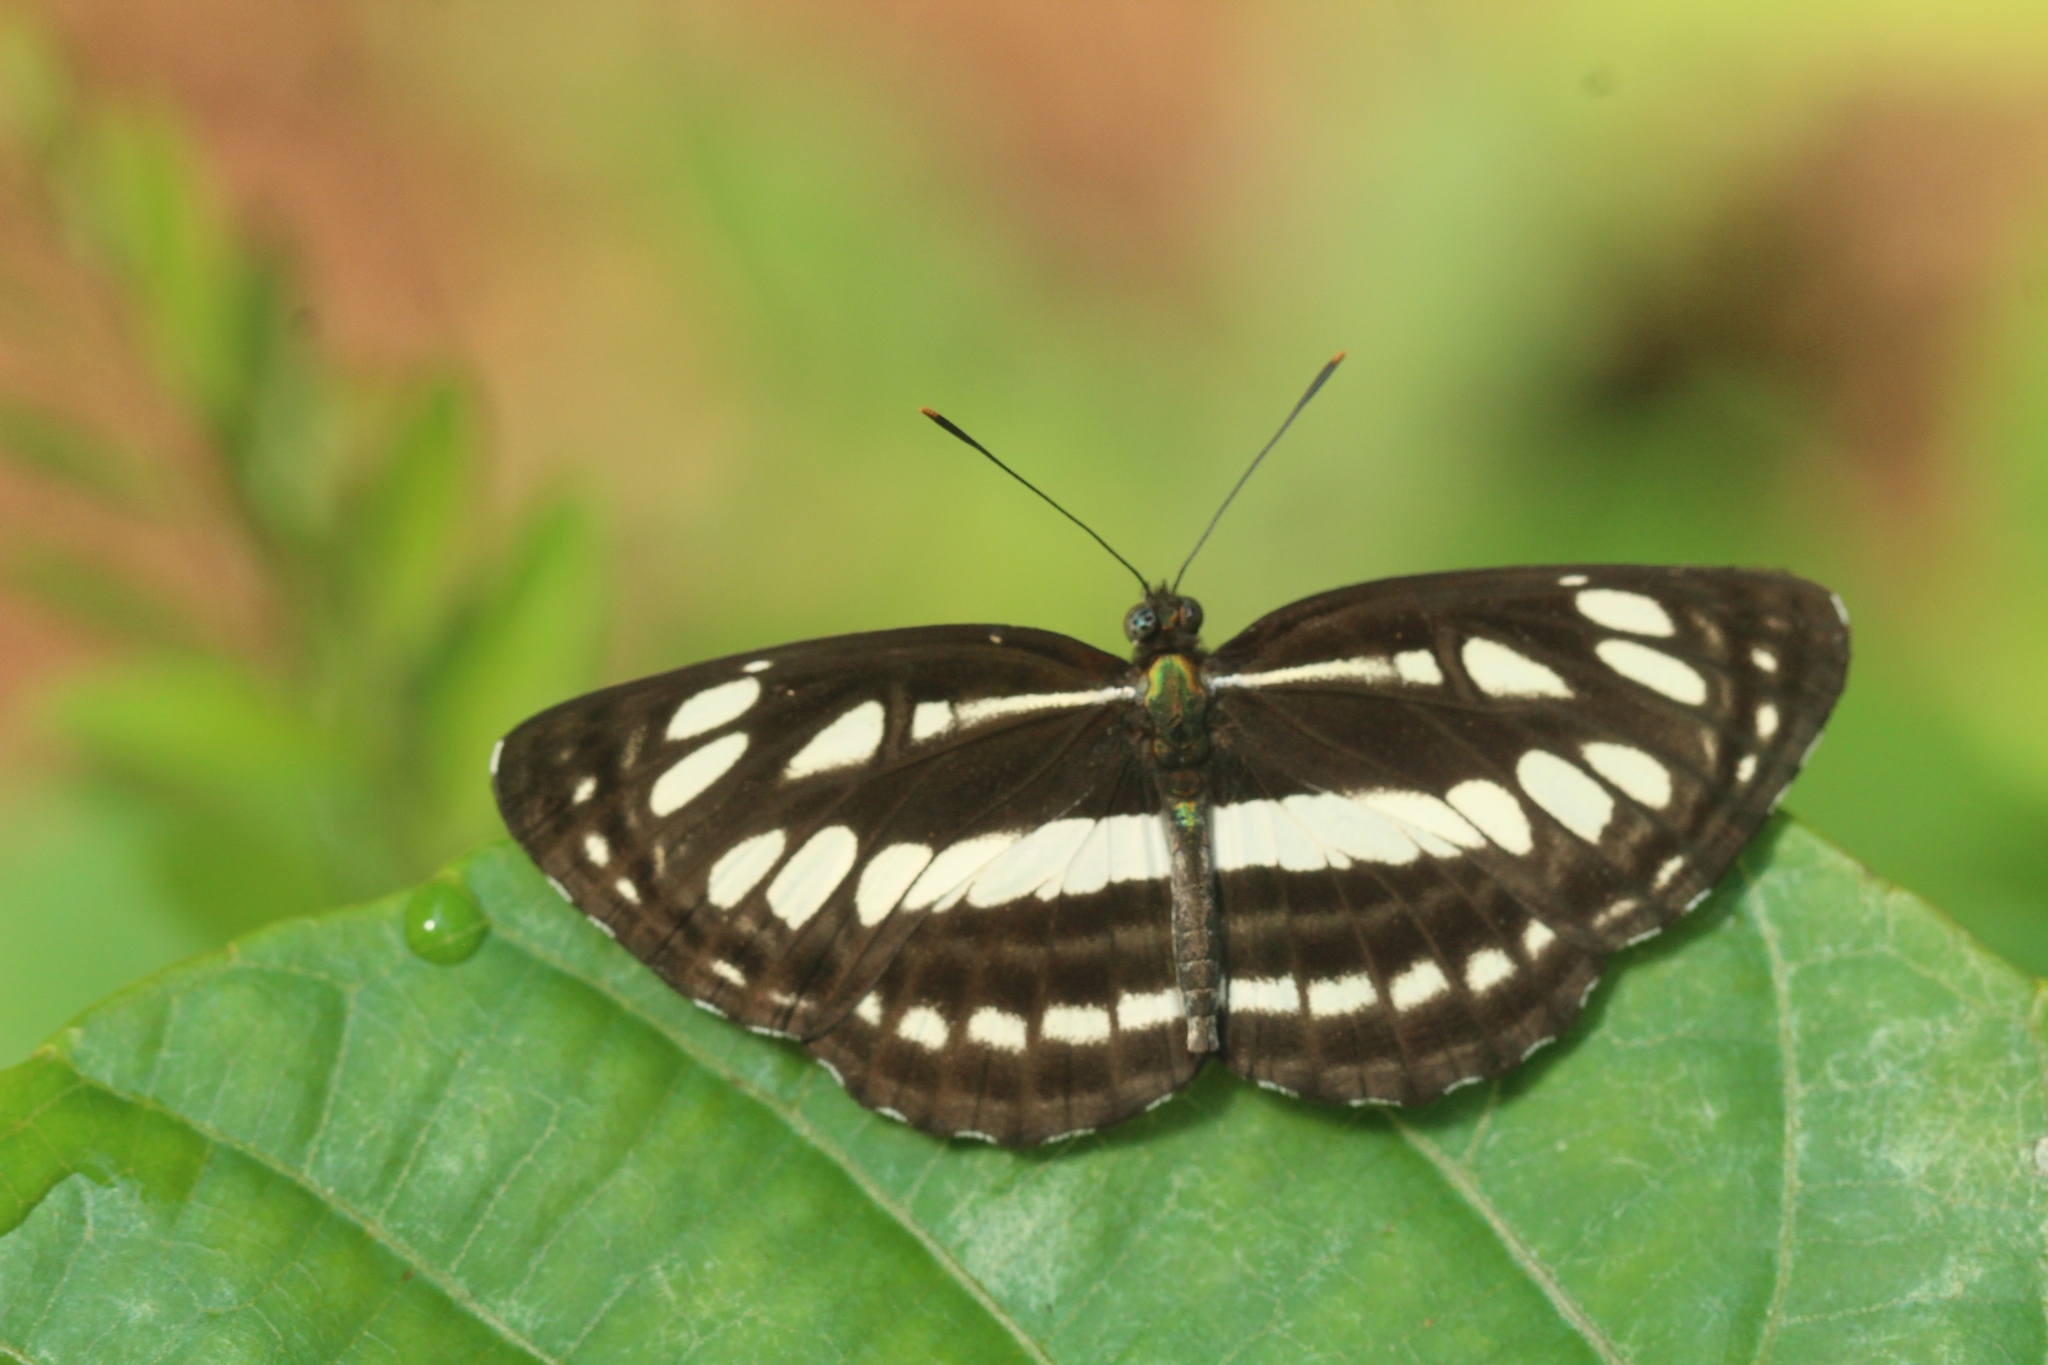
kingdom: Animalia
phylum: Arthropoda
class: Insecta
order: Lepidoptera
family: Nymphalidae
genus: Neptis
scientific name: Neptis hylas
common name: Common sailer
